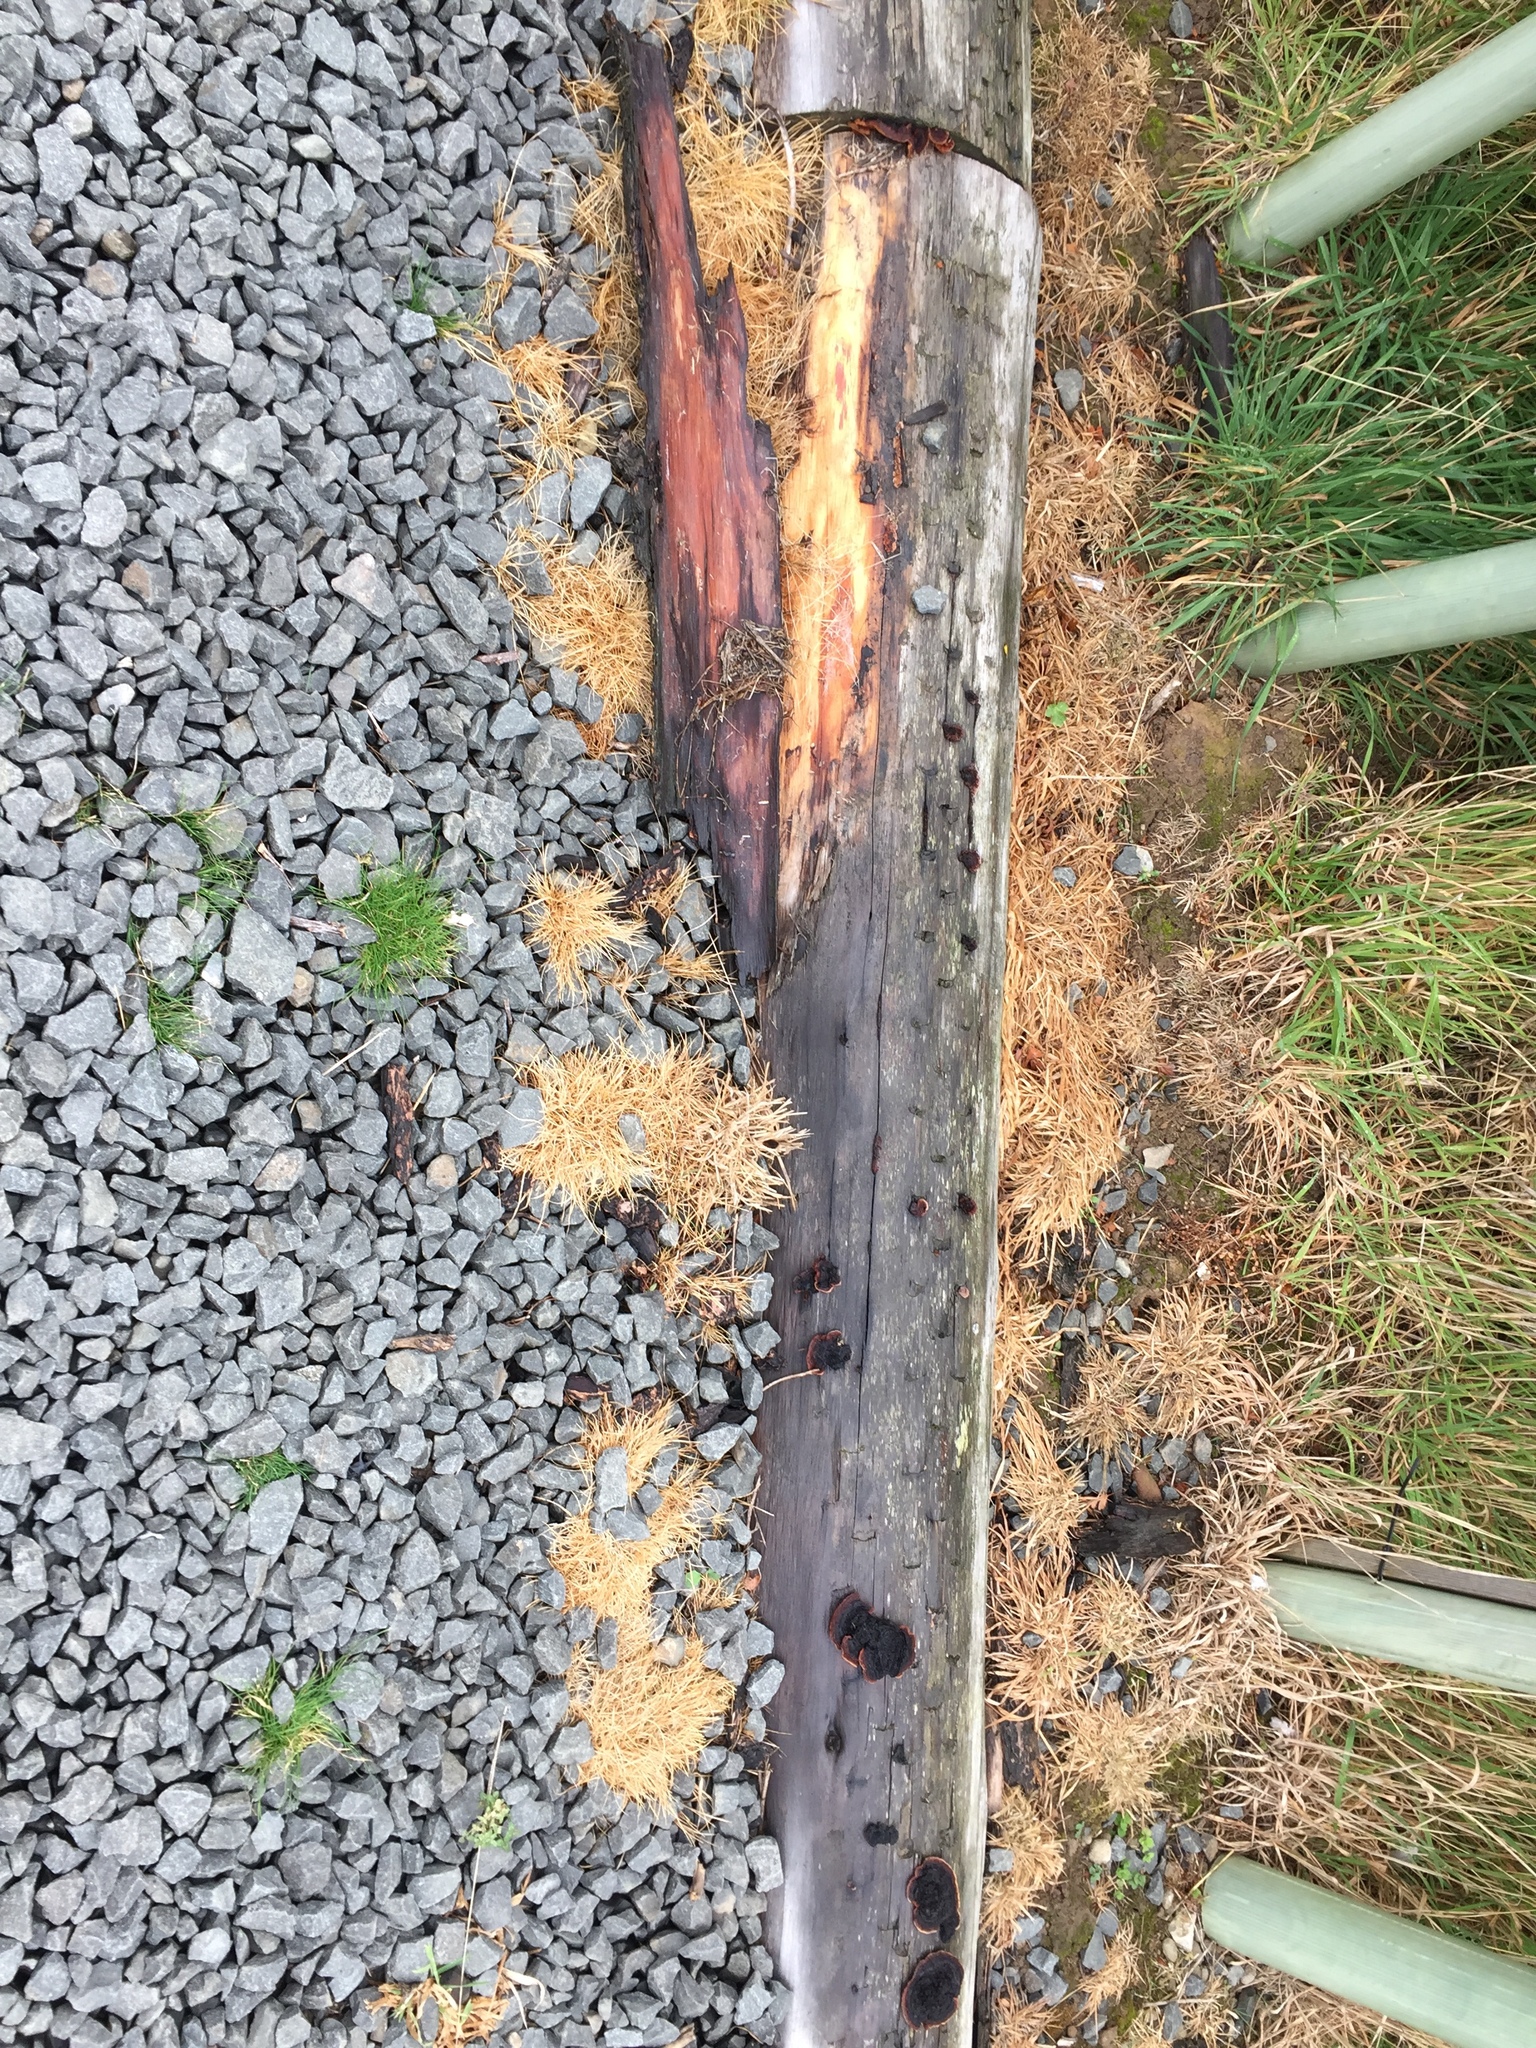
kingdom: Fungi
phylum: Basidiomycota
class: Agaricomycetes
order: Gloeophyllales
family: Gloeophyllaceae
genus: Gloeophyllum
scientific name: Gloeophyllum sepiarium
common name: Conifer mazegill
